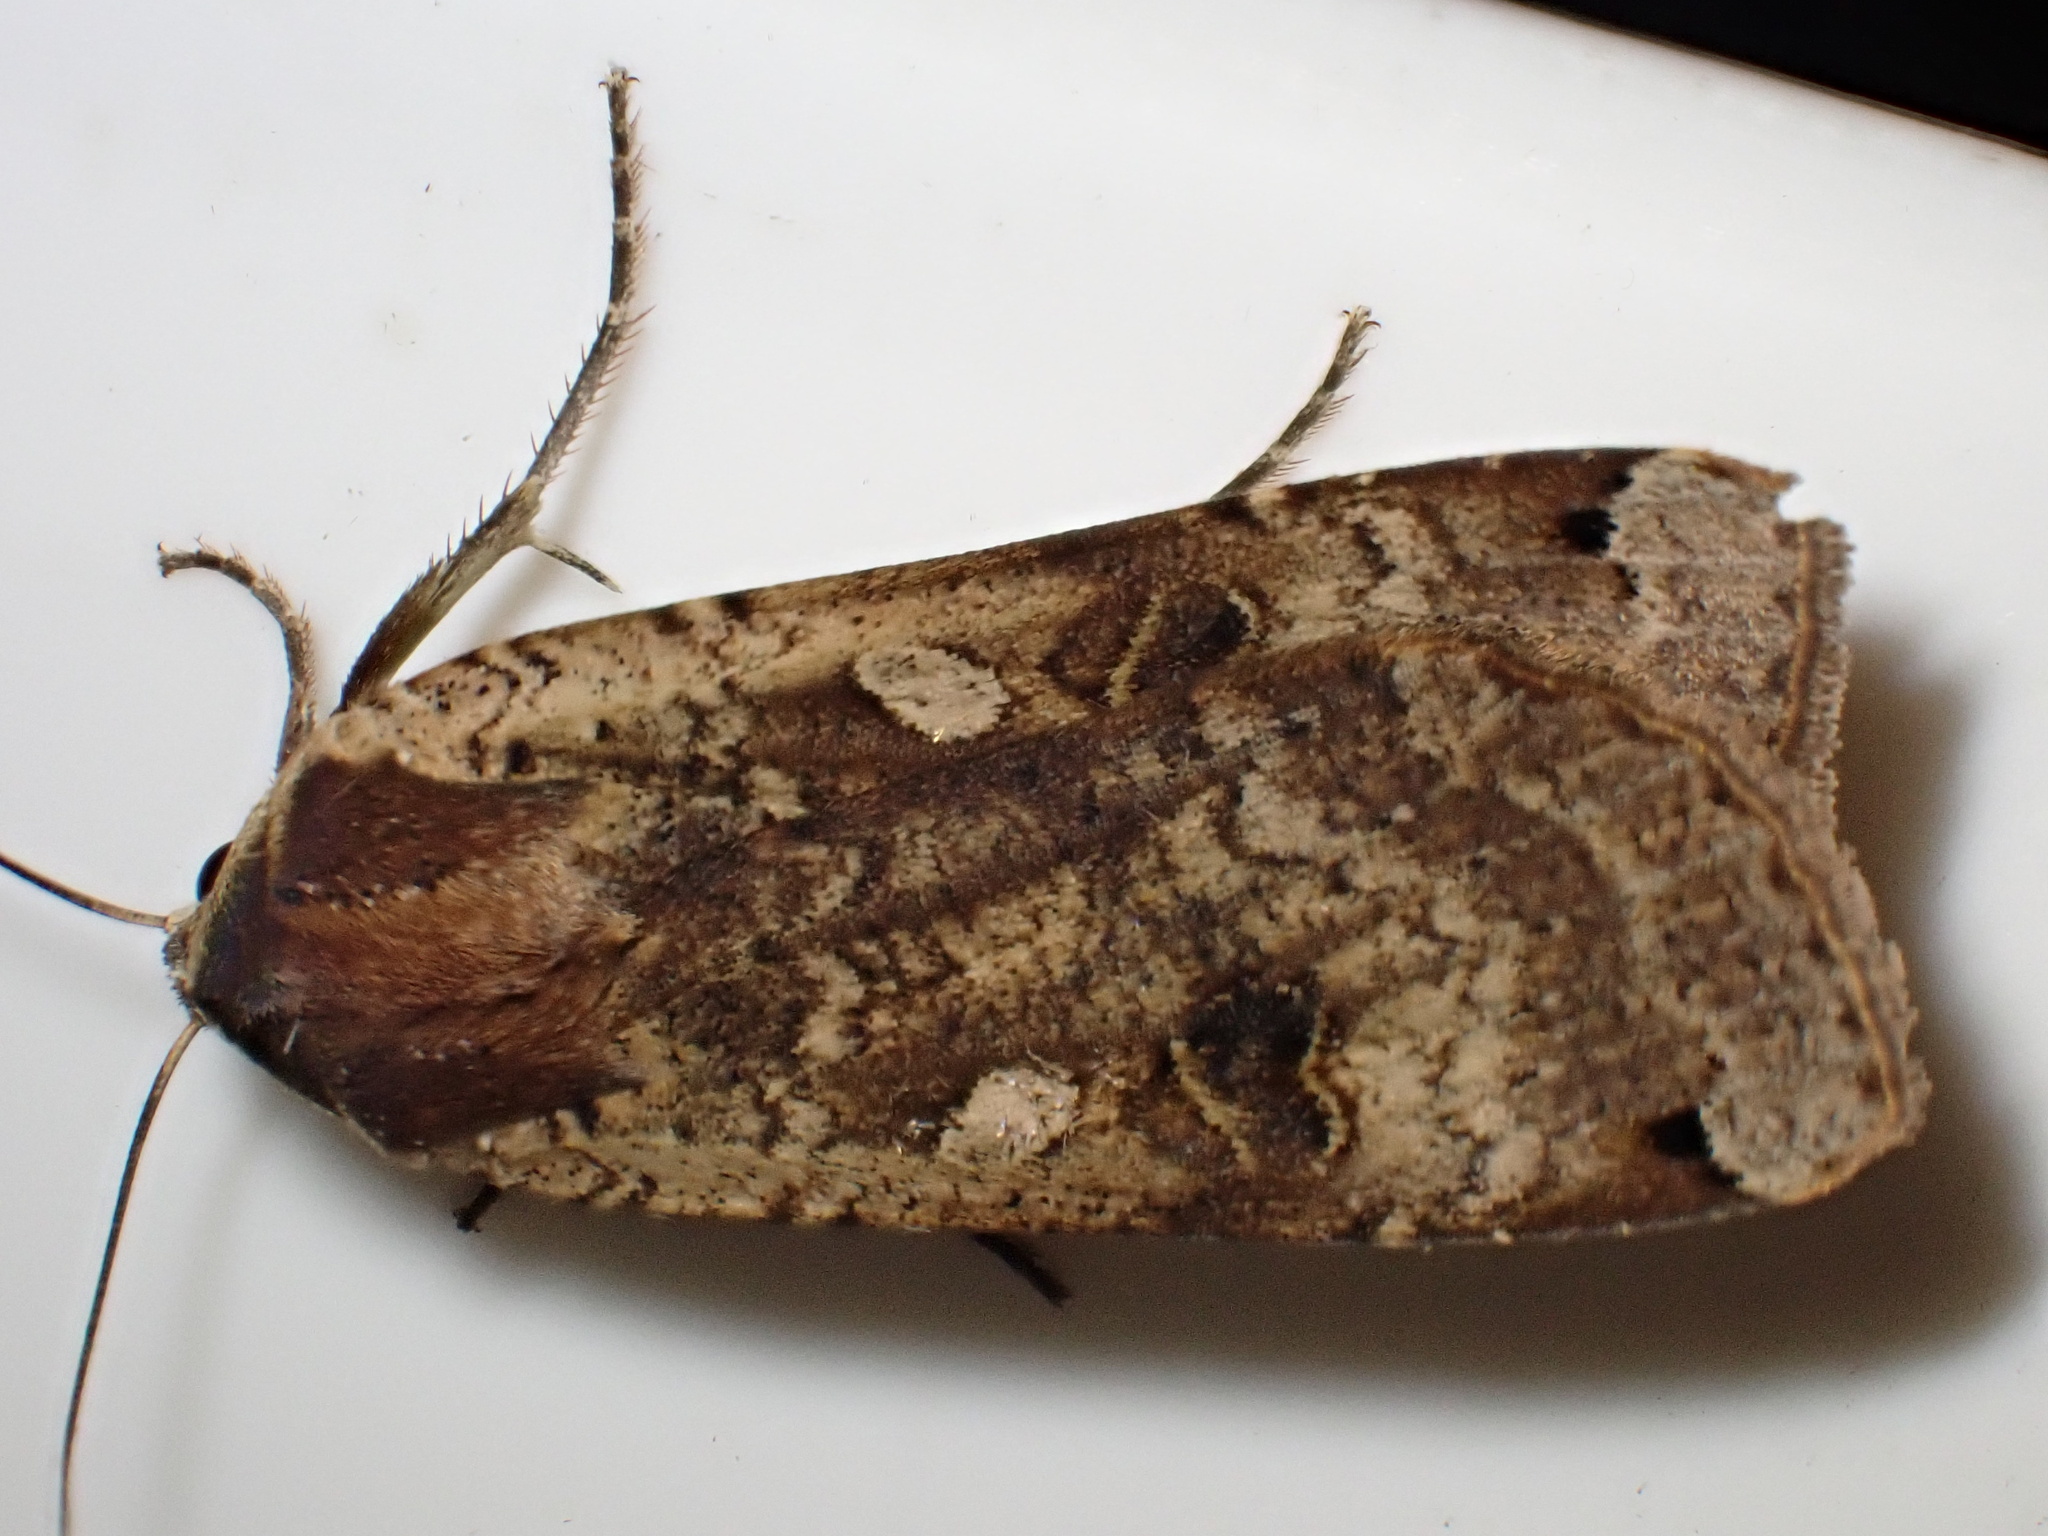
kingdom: Animalia
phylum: Arthropoda
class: Insecta
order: Lepidoptera
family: Noctuidae
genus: Noctua
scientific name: Noctua pronuba
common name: Large yellow underwing
